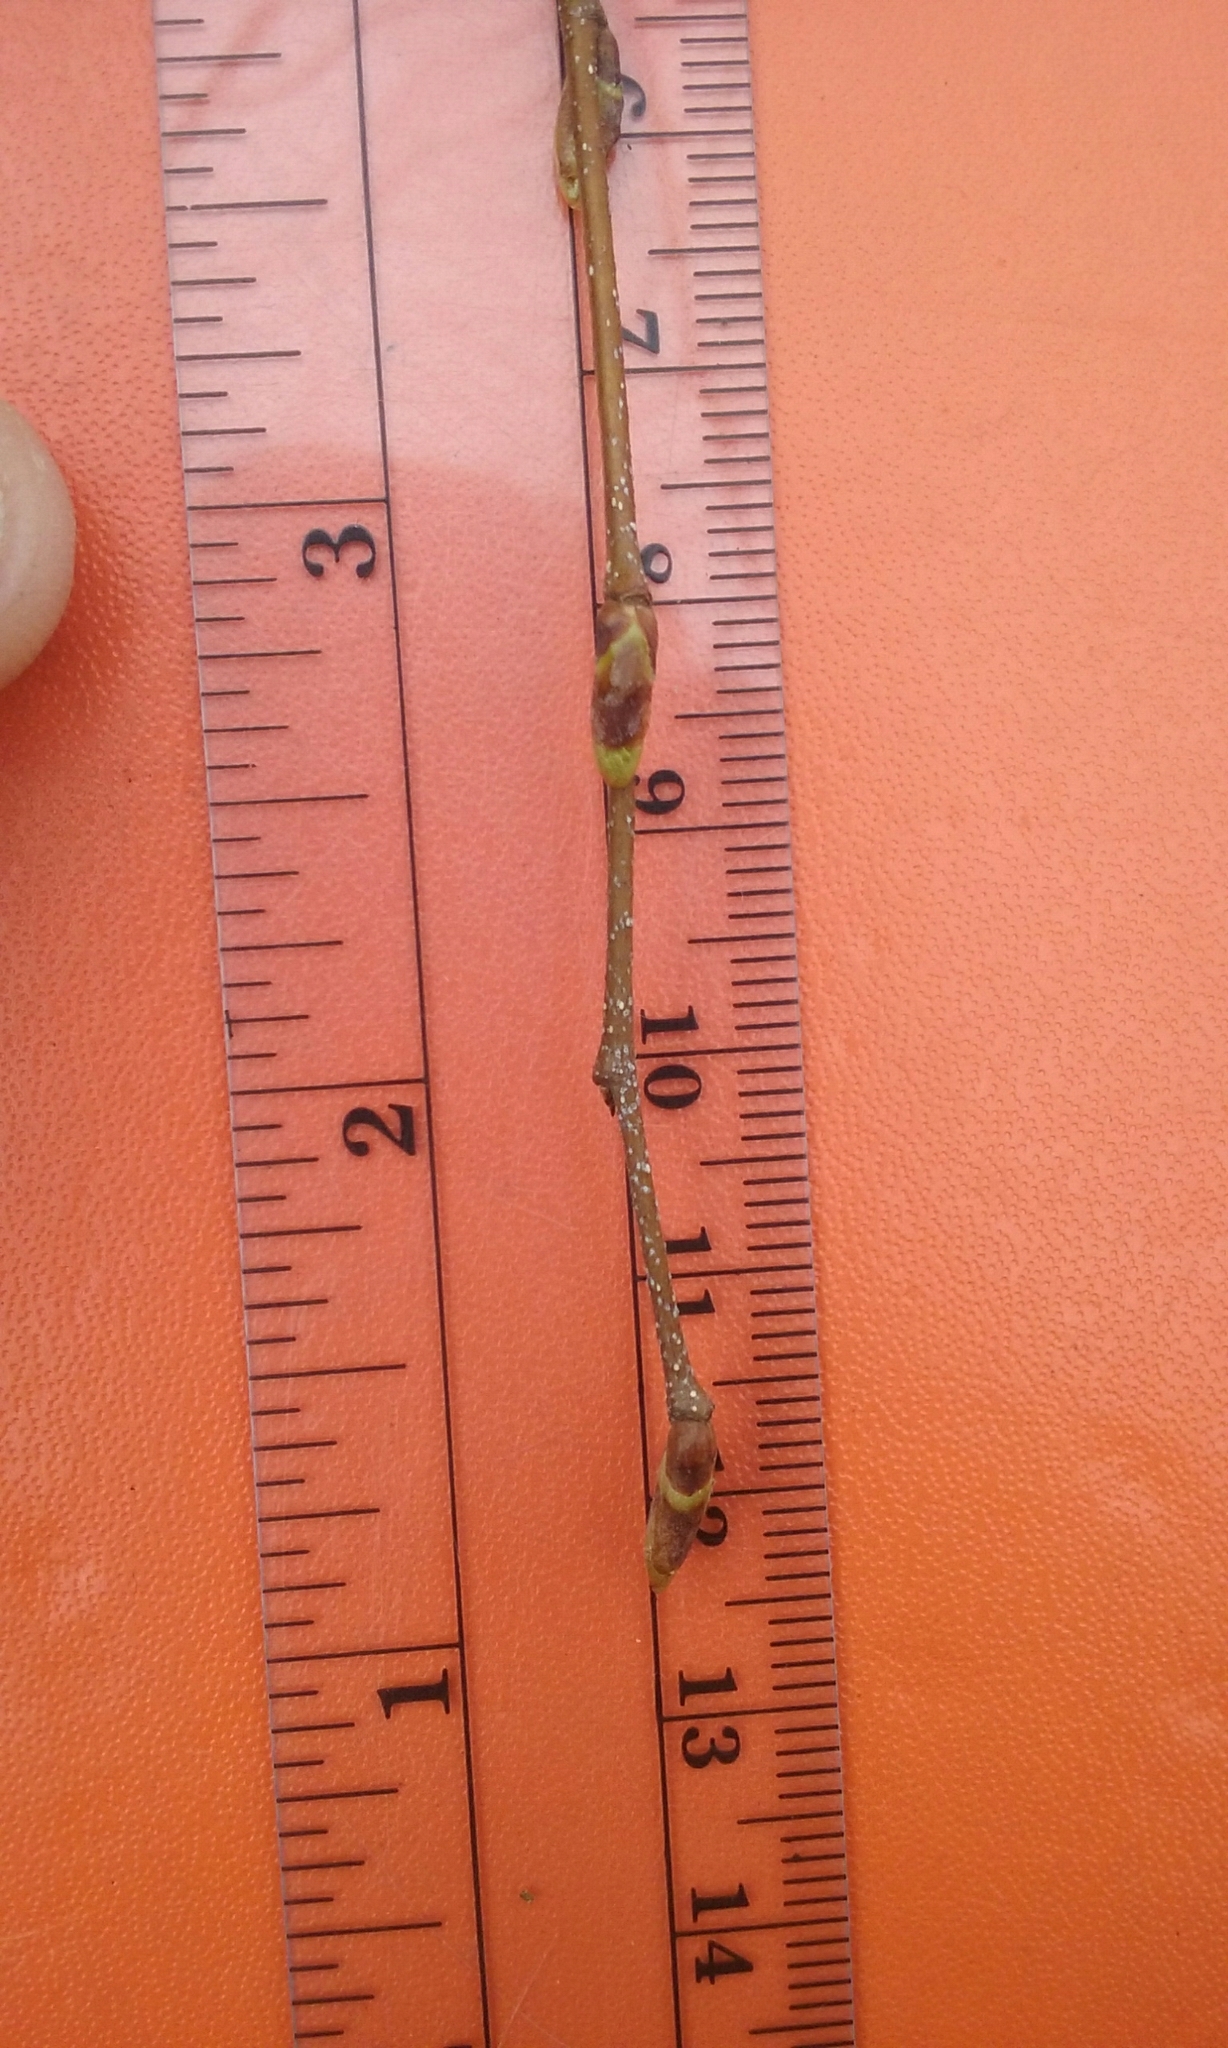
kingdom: Plantae
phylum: Tracheophyta
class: Magnoliopsida
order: Fagales
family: Betulaceae
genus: Betula
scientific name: Betula papyrifera
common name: Paper birch
